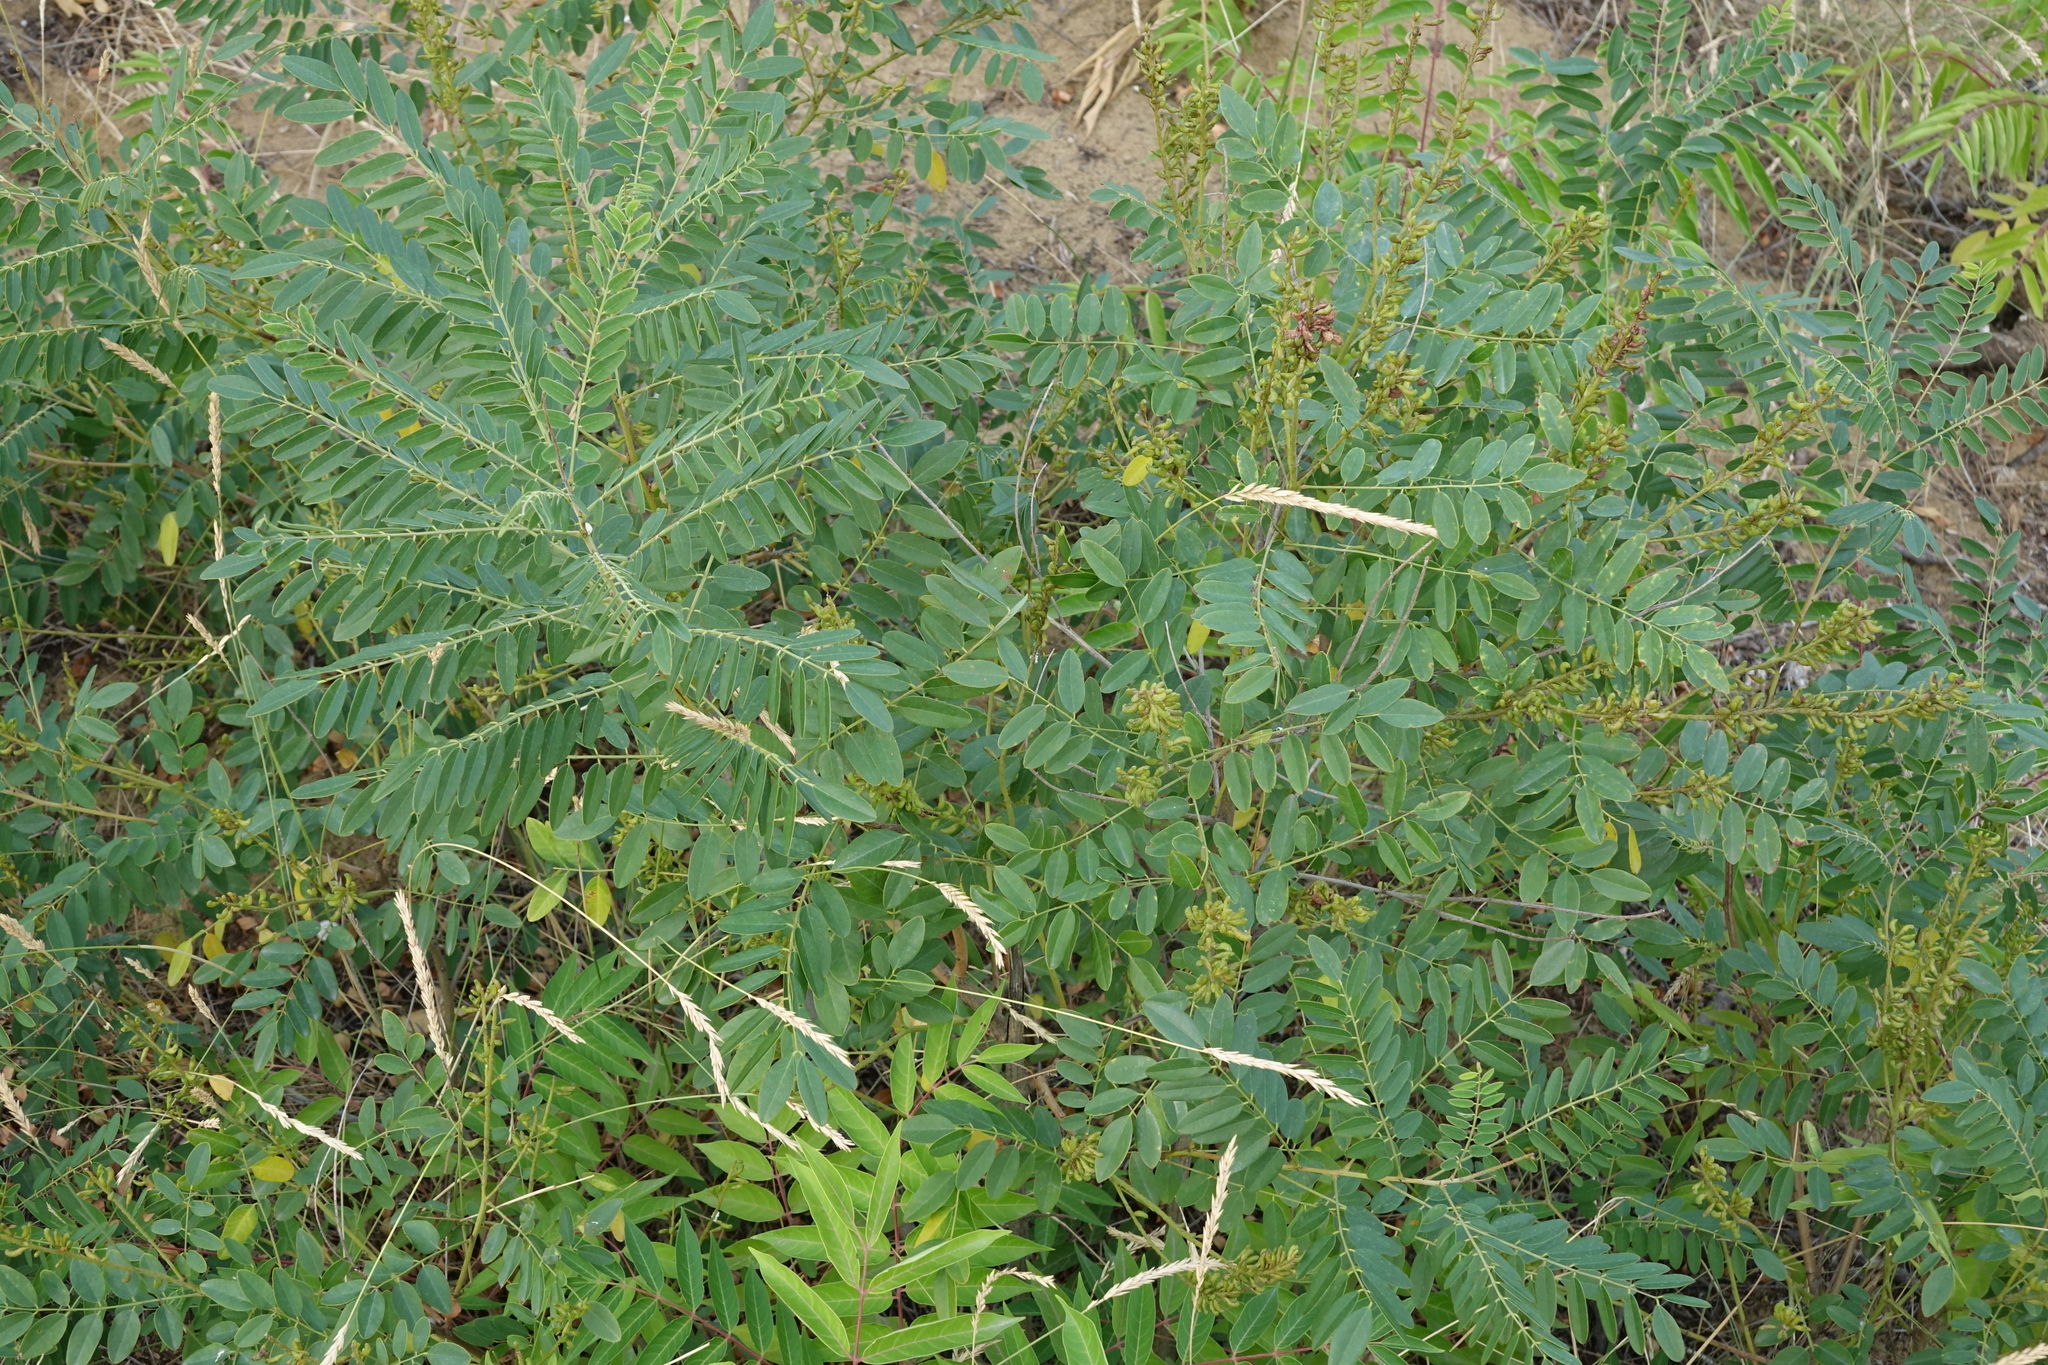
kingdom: Plantae
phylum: Tracheophyta
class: Magnoliopsida
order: Fabales
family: Fabaceae
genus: Amorpha
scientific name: Amorpha fruticosa
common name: False indigo
